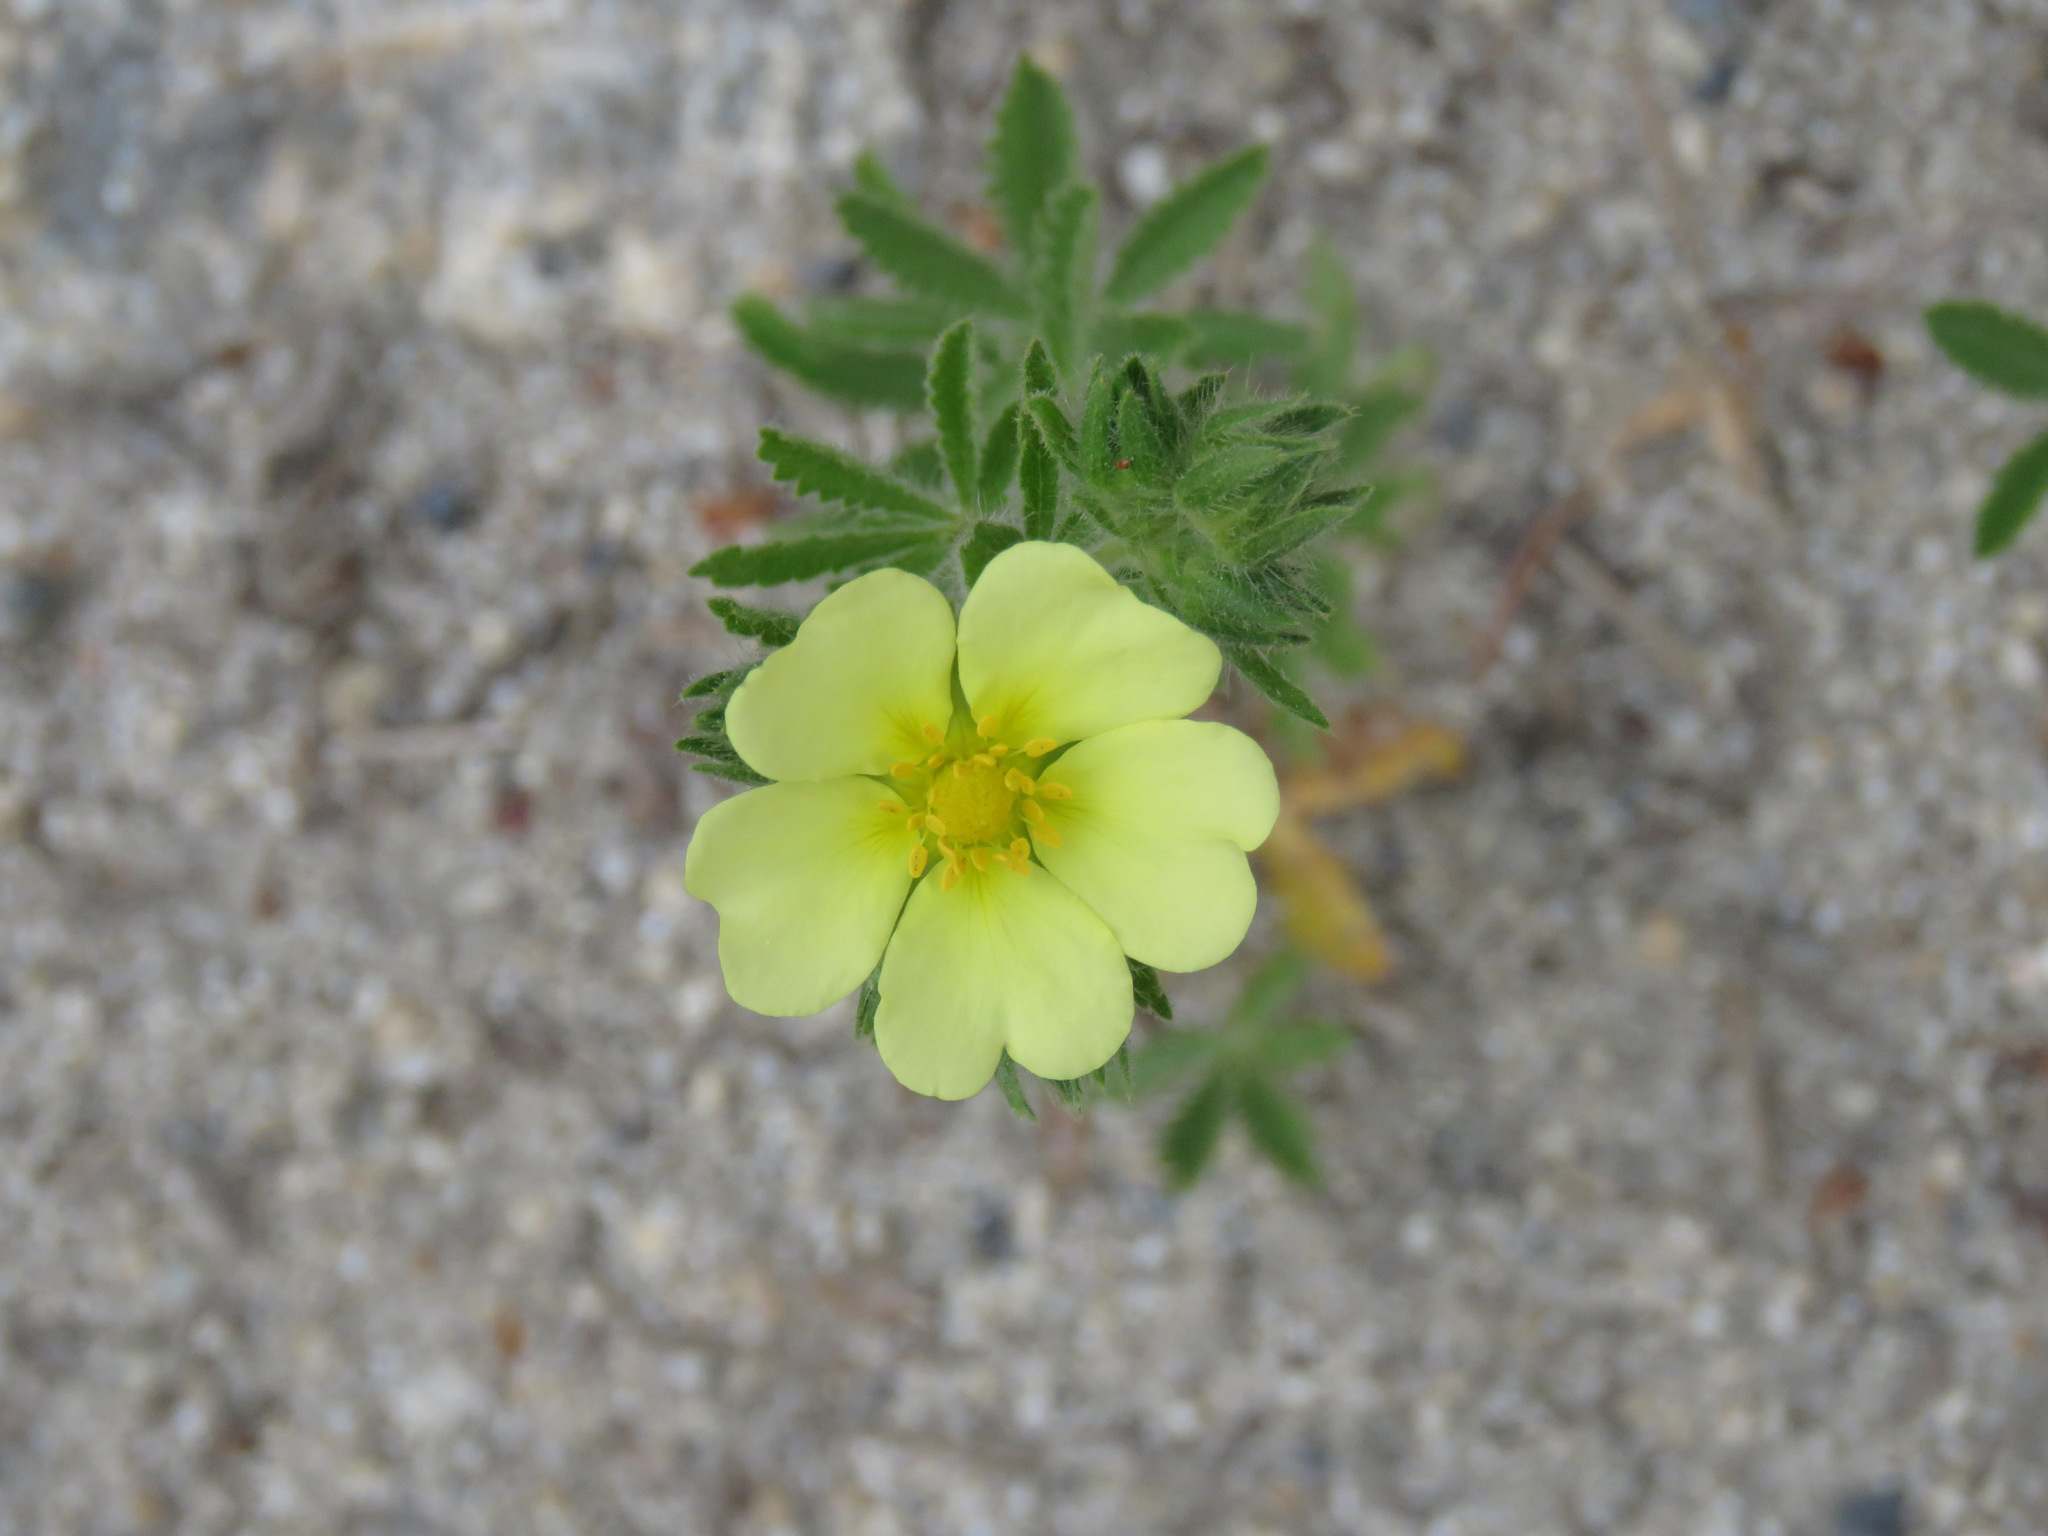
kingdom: Plantae
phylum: Tracheophyta
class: Magnoliopsida
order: Rosales
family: Rosaceae
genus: Potentilla
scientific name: Potentilla recta
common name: Sulphur cinquefoil
